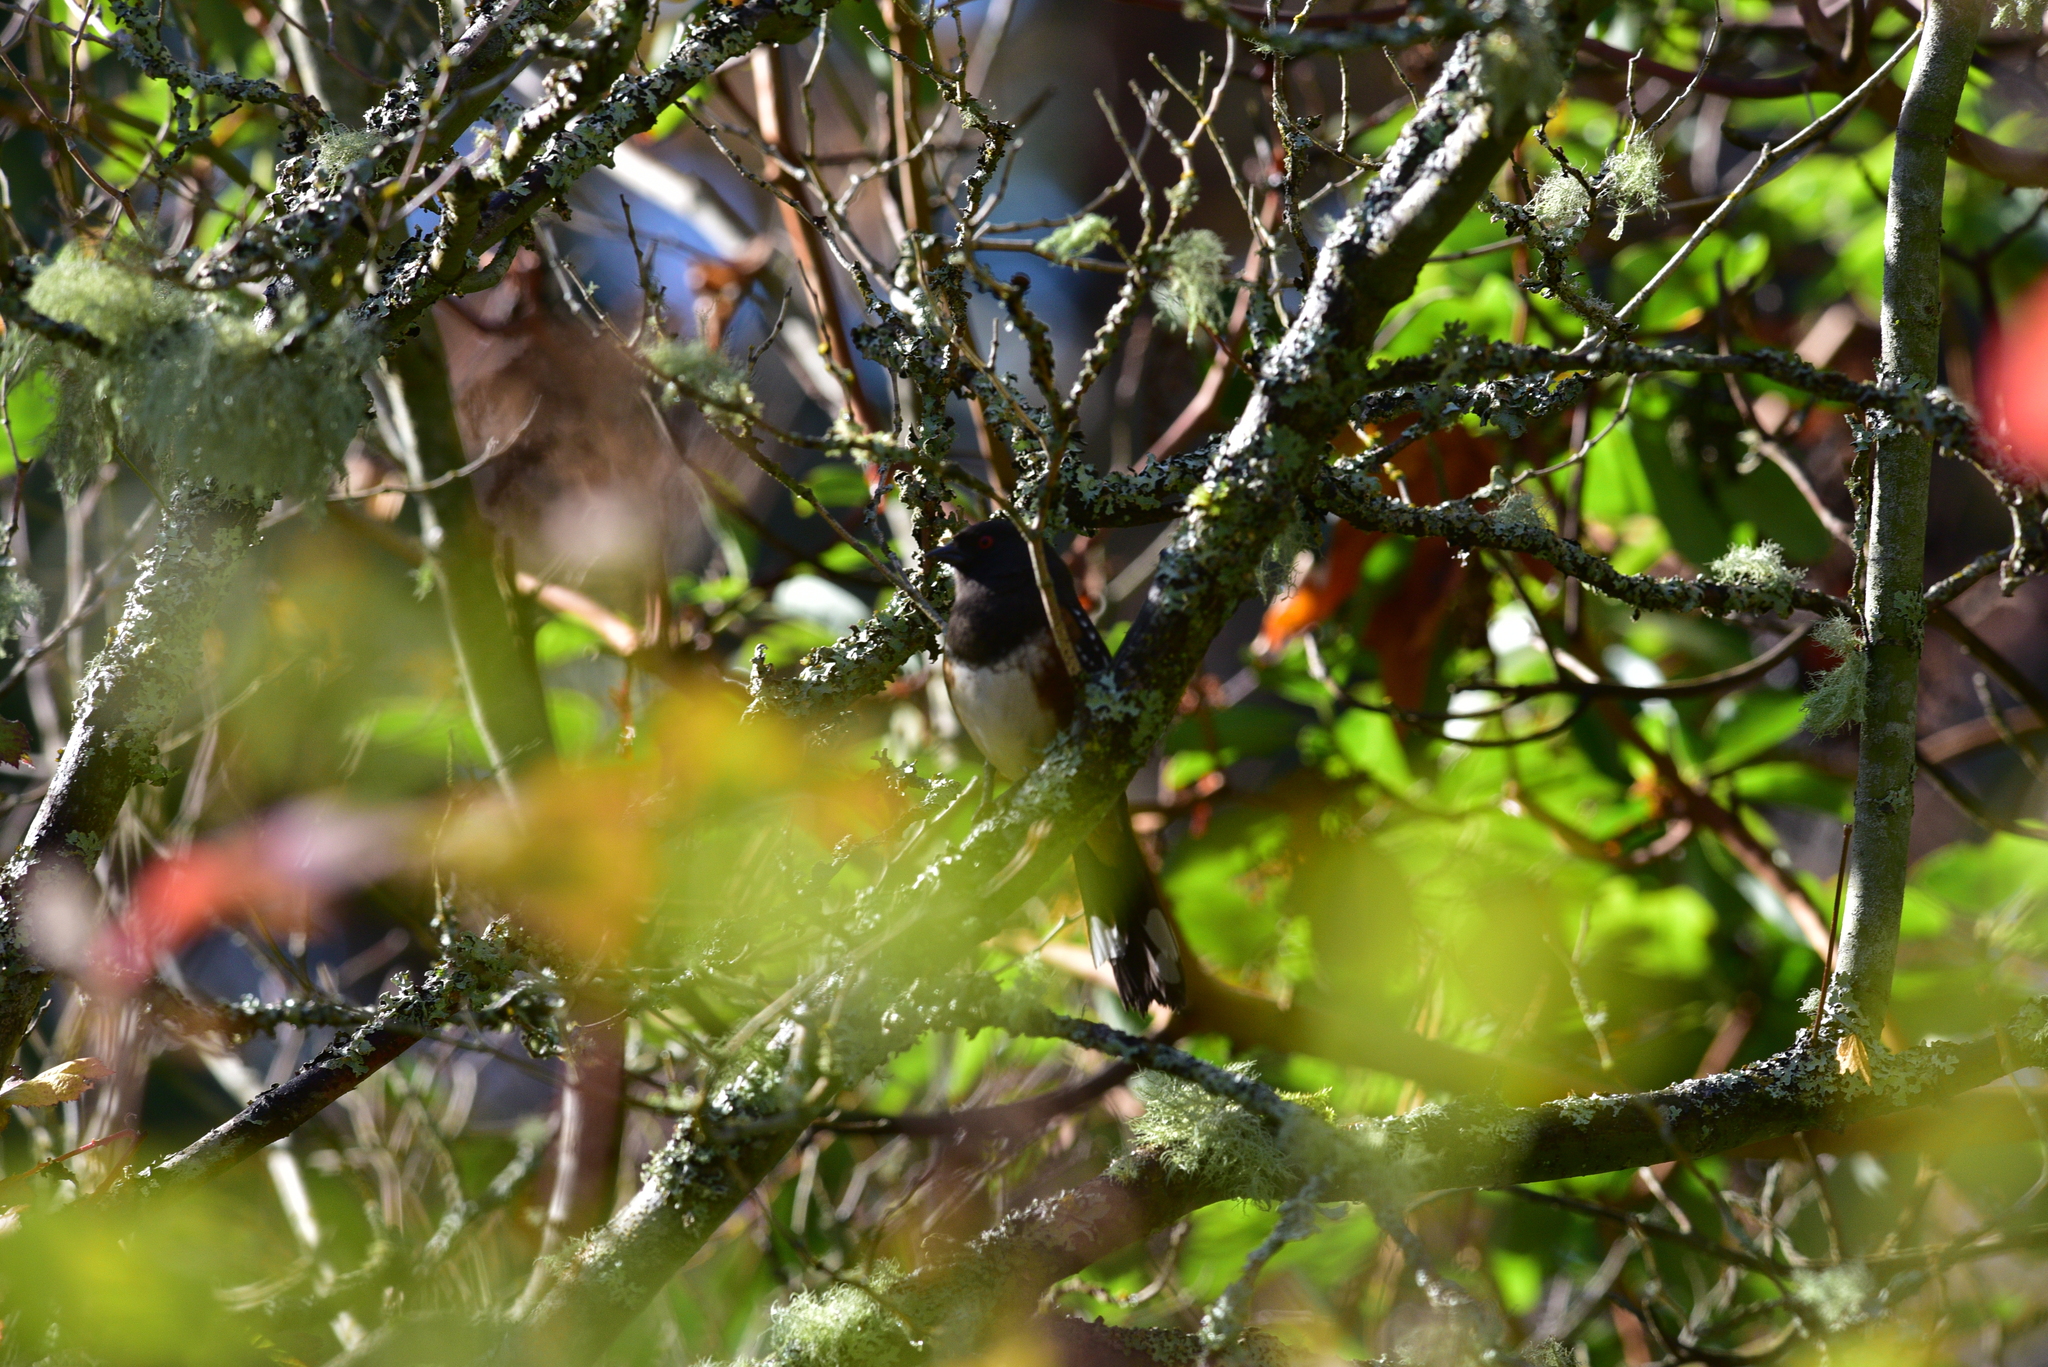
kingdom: Animalia
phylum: Chordata
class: Aves
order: Passeriformes
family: Passerellidae
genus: Pipilo
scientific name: Pipilo maculatus
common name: Spotted towhee
